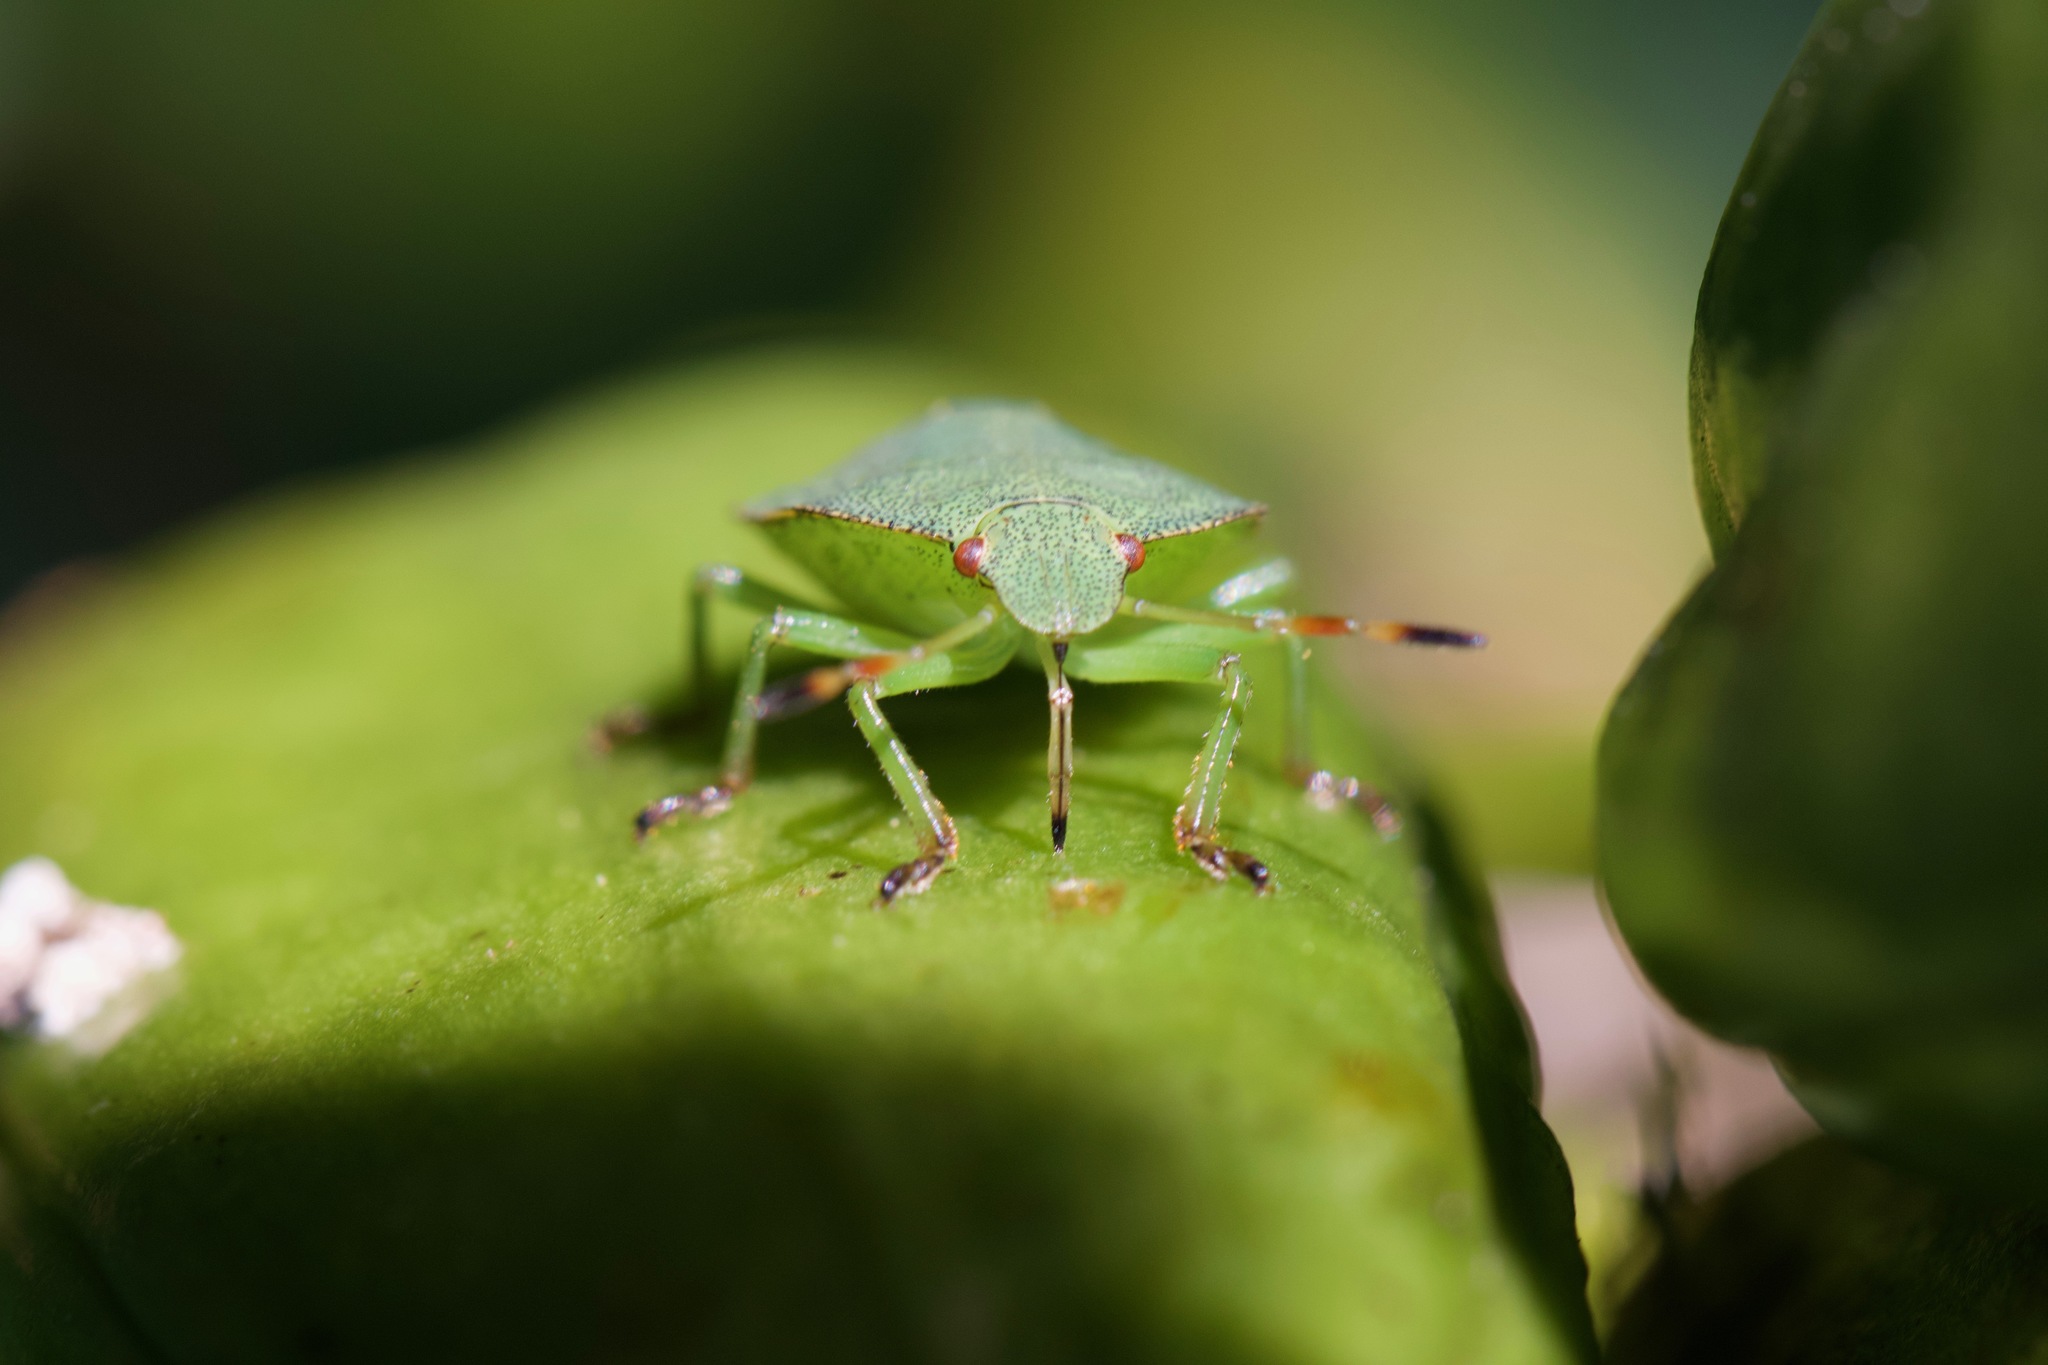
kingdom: Animalia
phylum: Arthropoda
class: Insecta
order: Hemiptera
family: Pentatomidae
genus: Palomena
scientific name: Palomena prasina
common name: Green shieldbug
